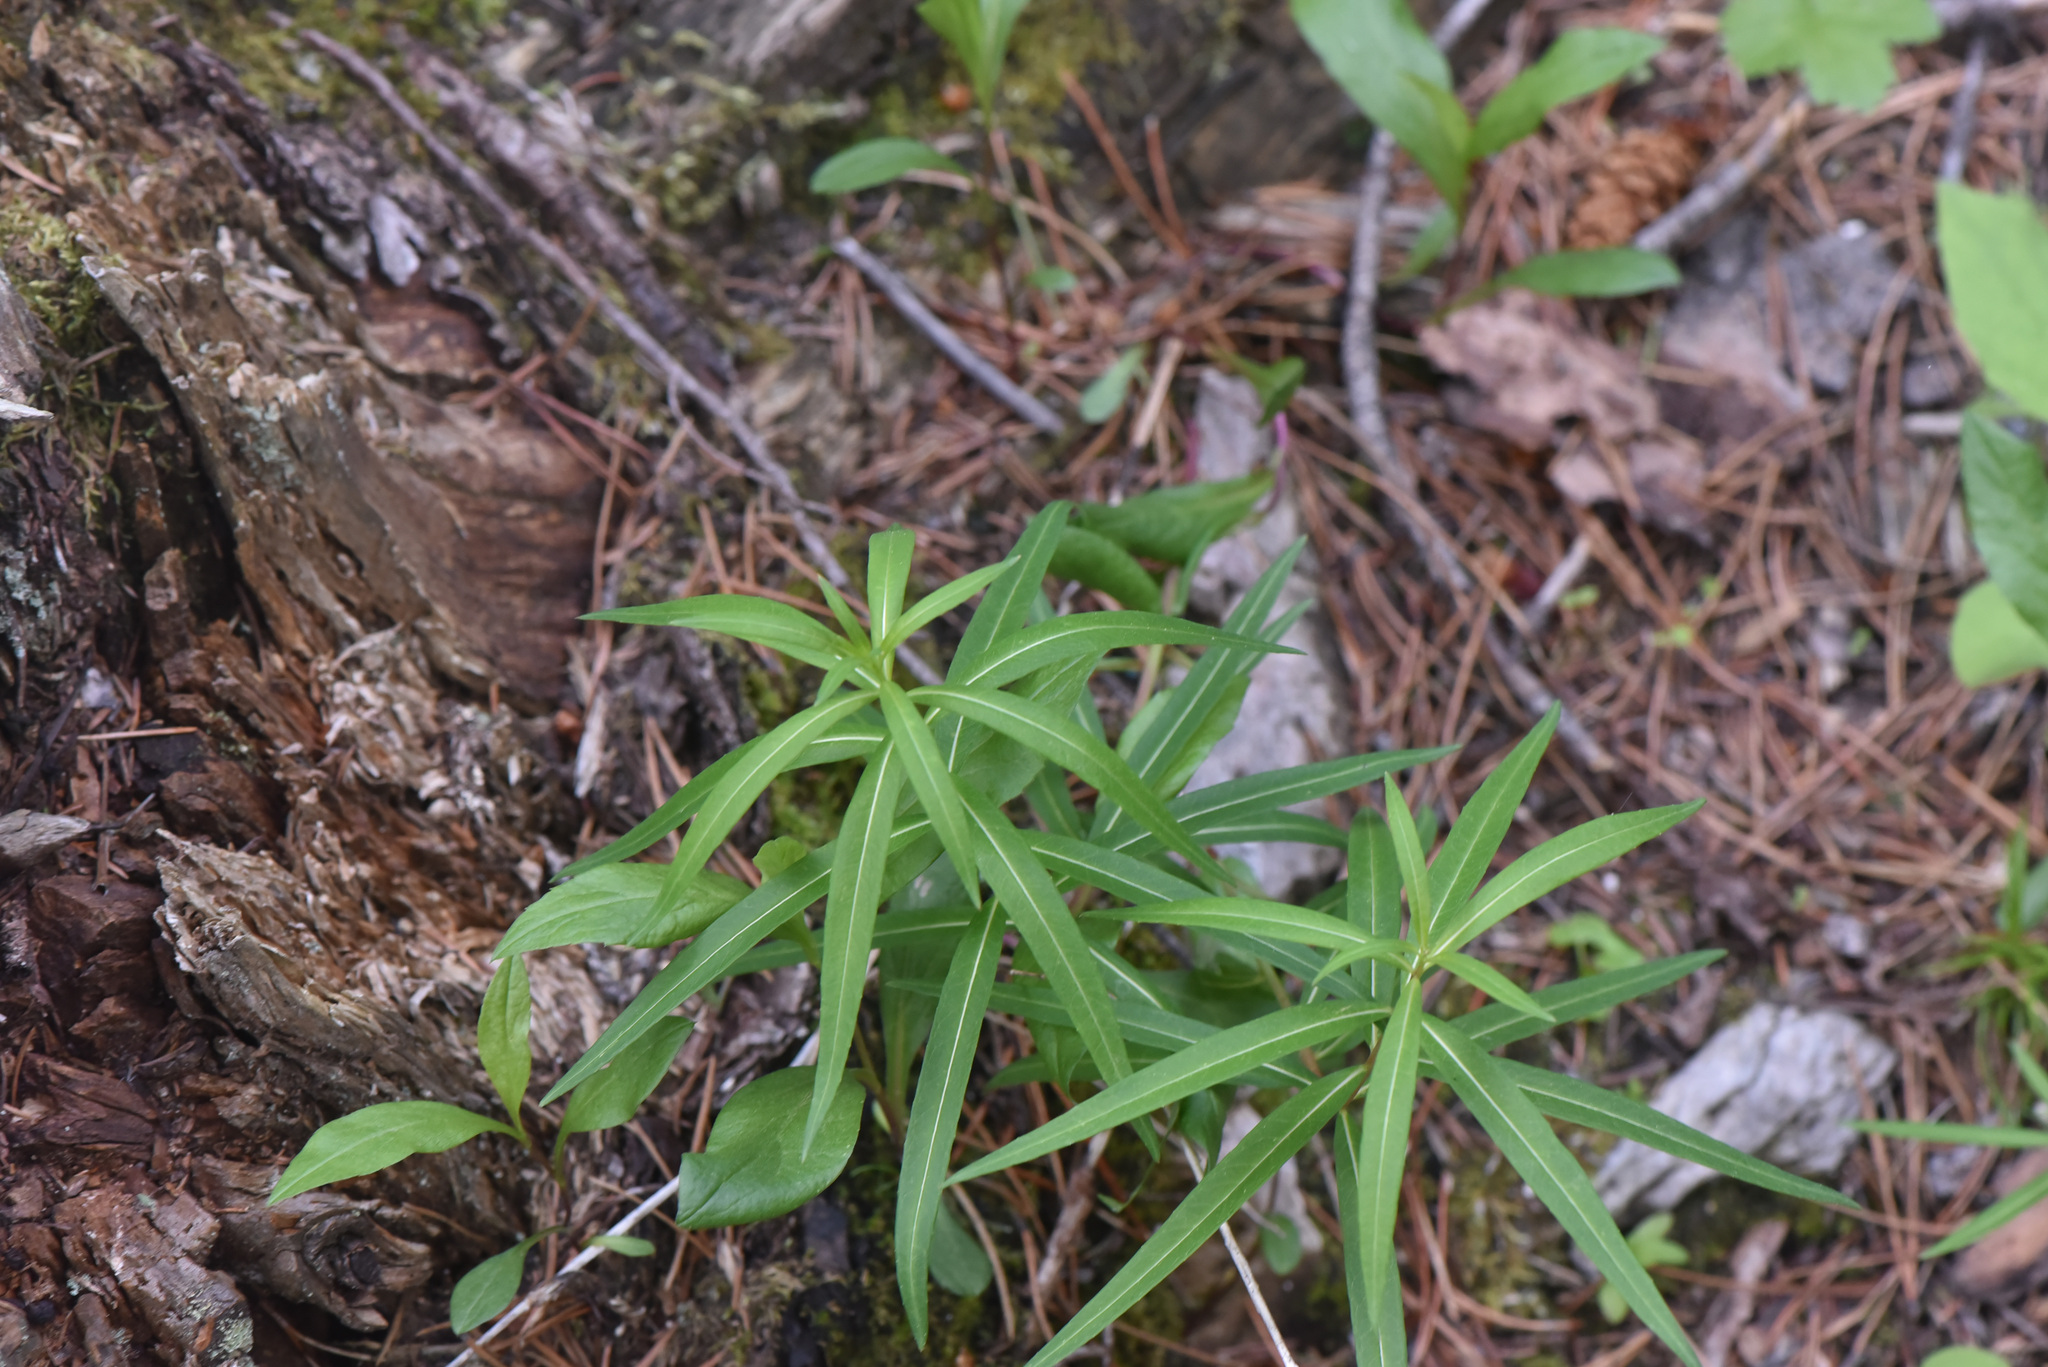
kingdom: Plantae
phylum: Tracheophyta
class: Magnoliopsida
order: Myrtales
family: Onagraceae
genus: Chamaenerion
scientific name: Chamaenerion angustifolium
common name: Fireweed
